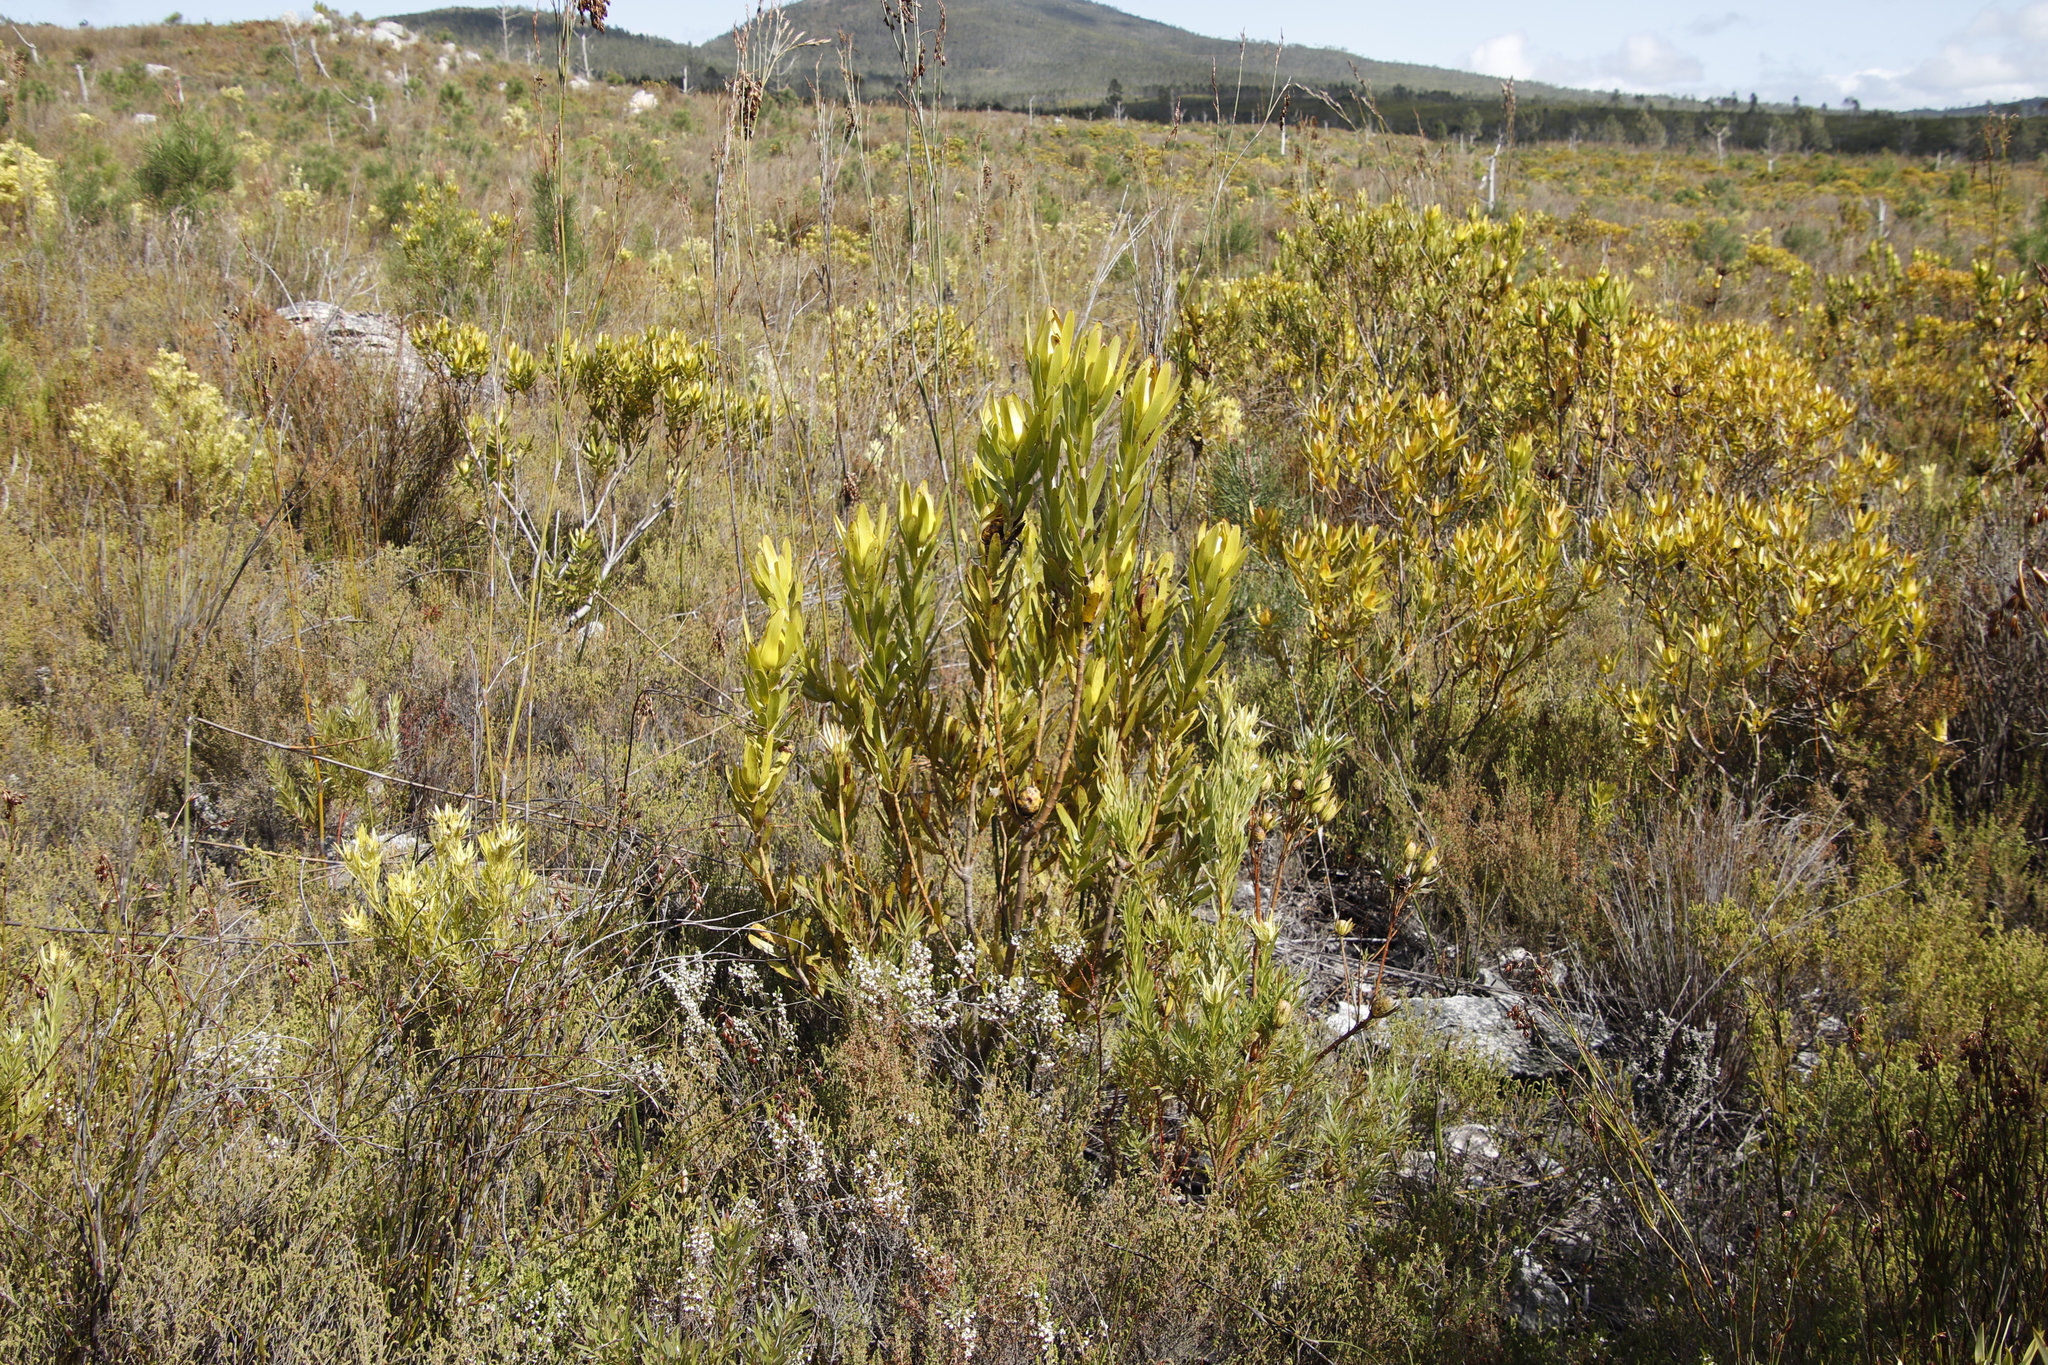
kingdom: Plantae
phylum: Tracheophyta
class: Magnoliopsida
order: Proteales
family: Proteaceae
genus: Leucadendron
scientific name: Leucadendron laureolum
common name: Golden sunshinebush
